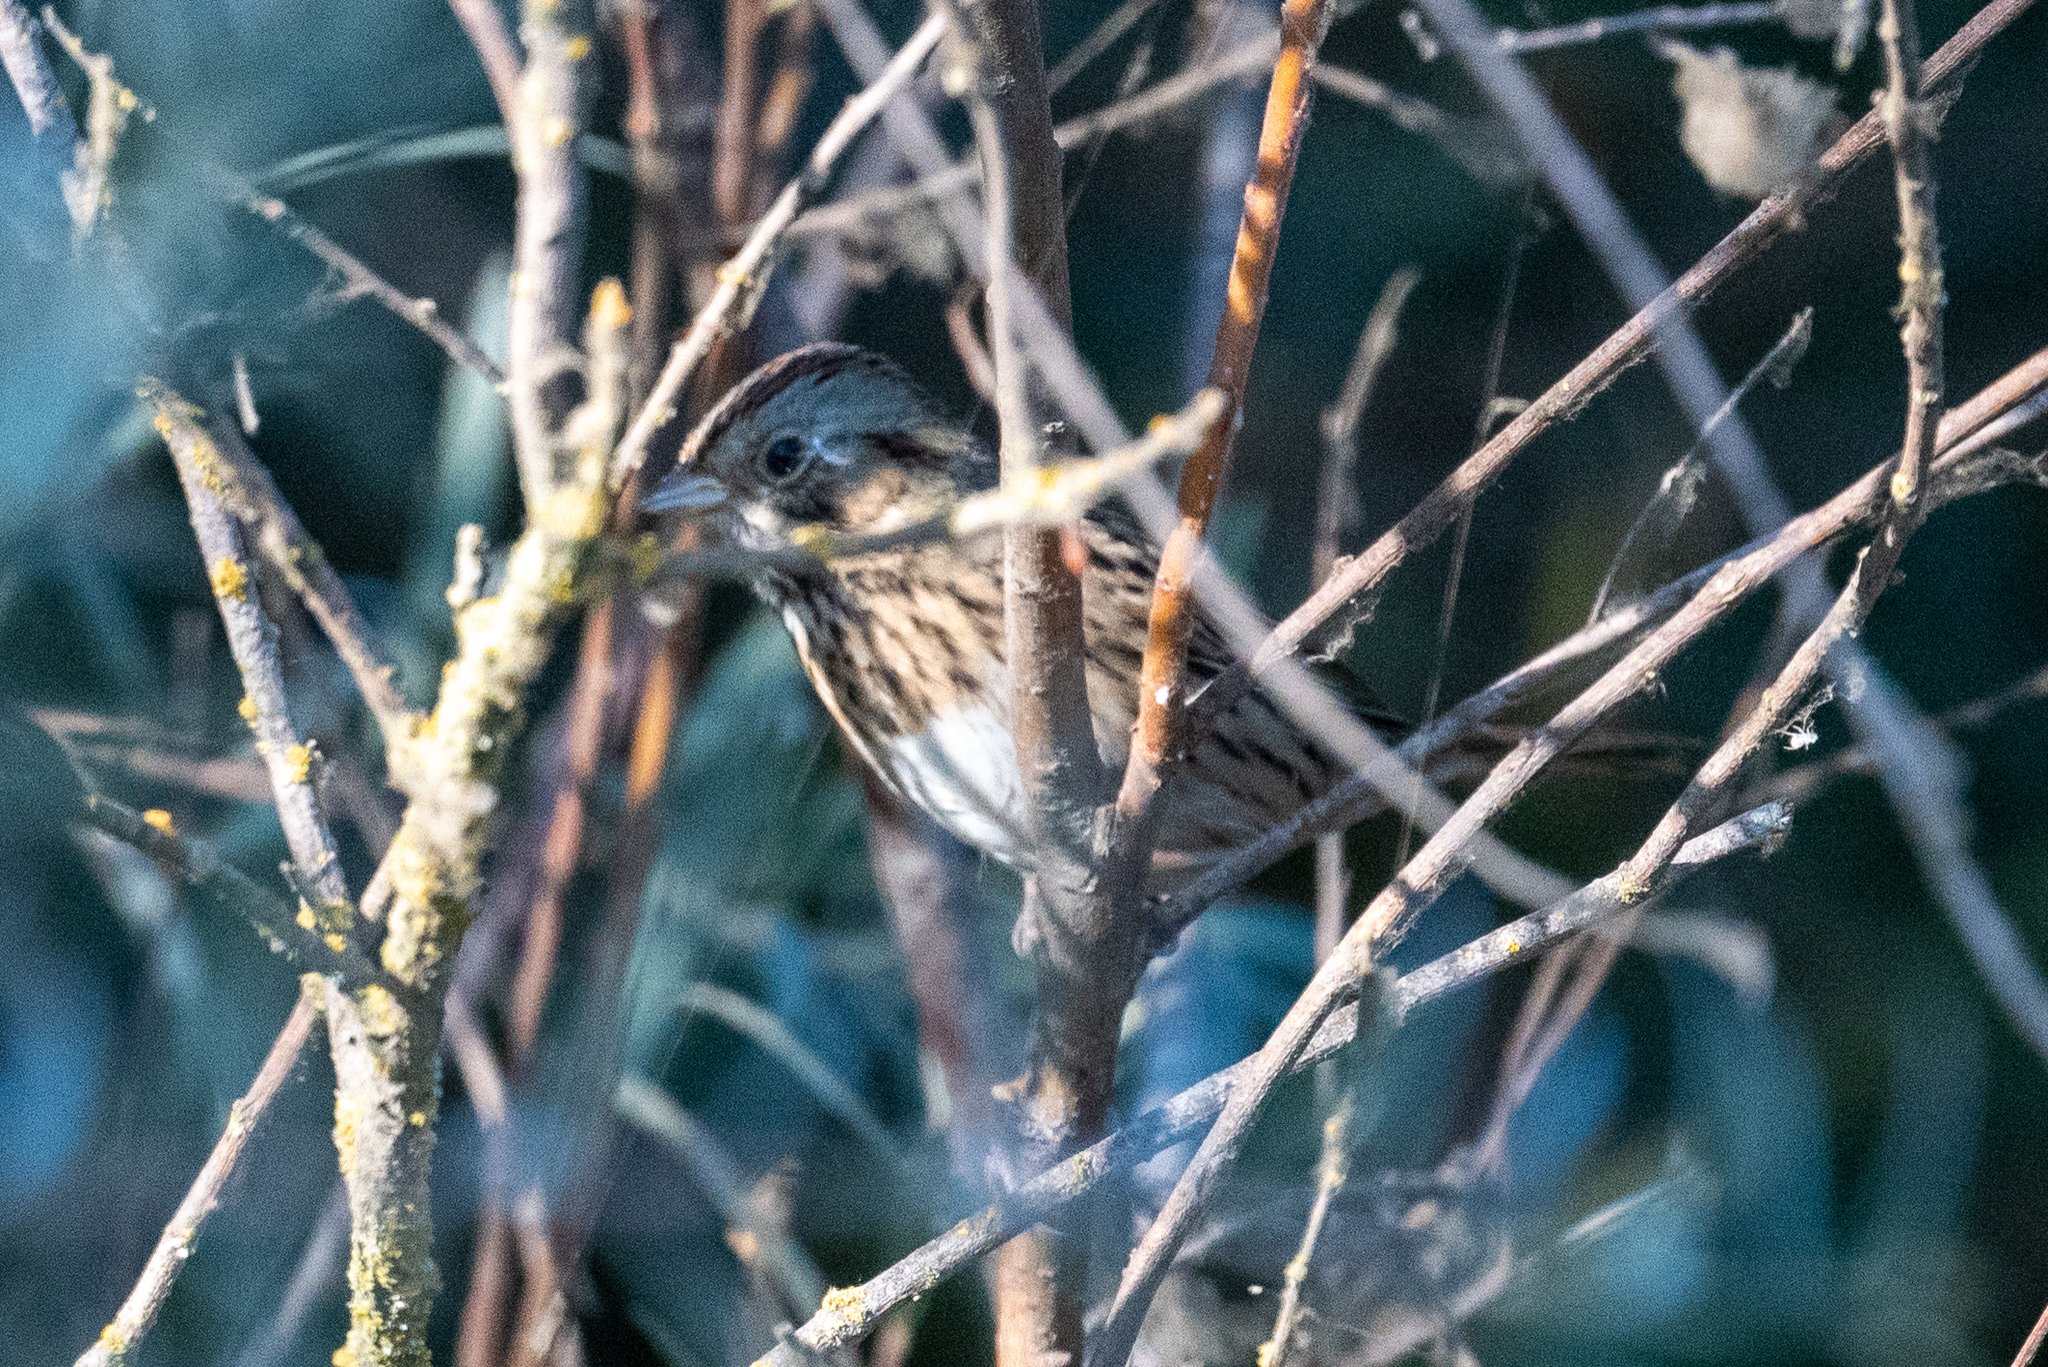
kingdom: Animalia
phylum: Chordata
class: Aves
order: Passeriformes
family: Passerellidae
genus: Melospiza
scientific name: Melospiza lincolnii
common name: Lincoln's sparrow
